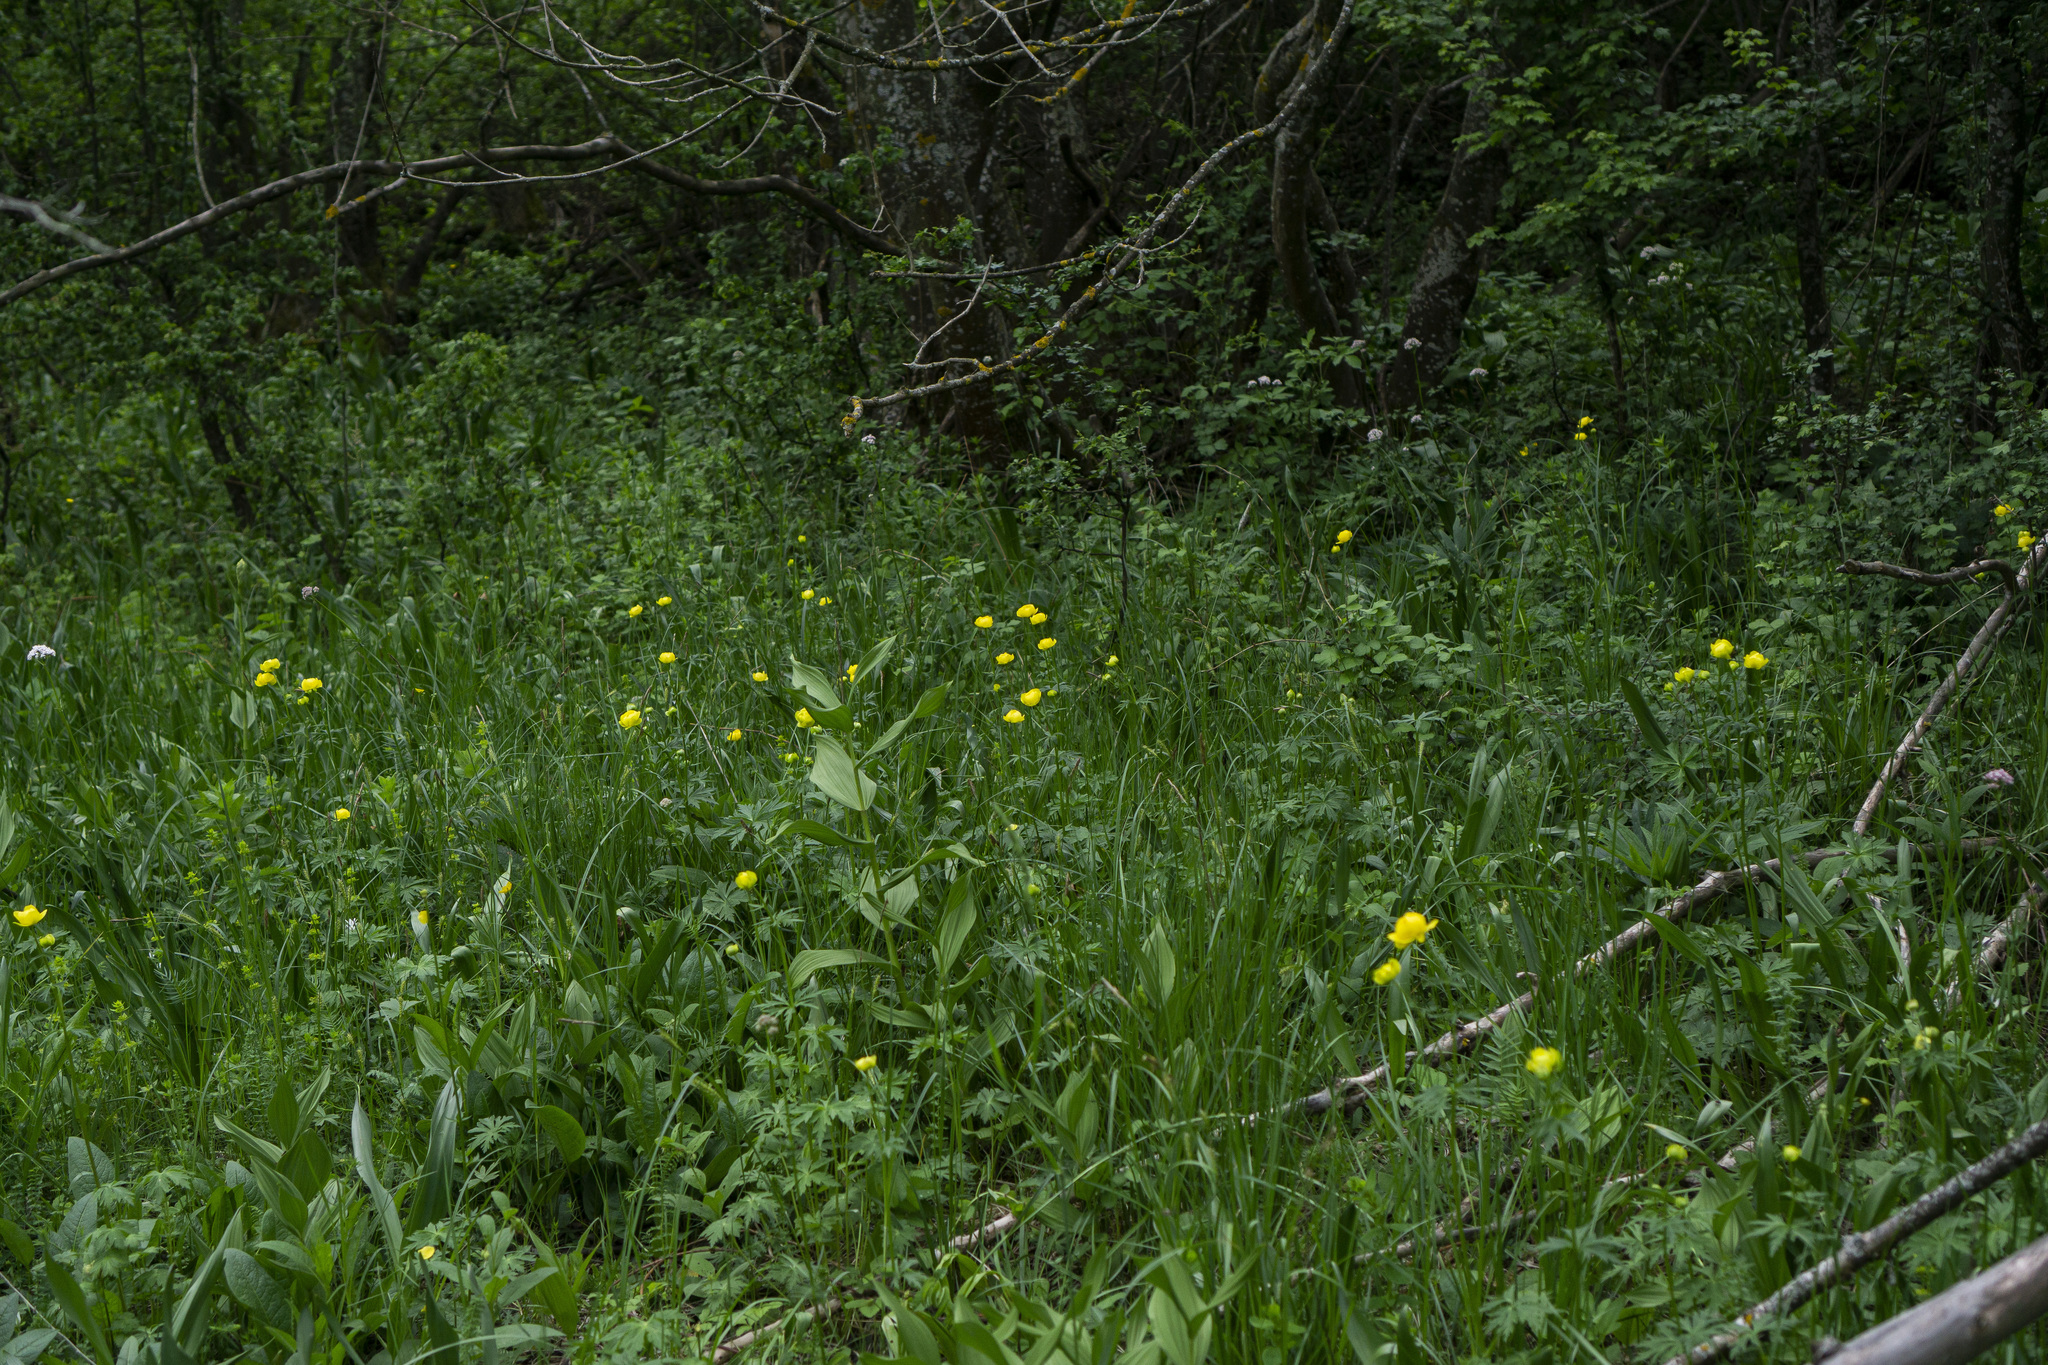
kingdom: Plantae
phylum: Tracheophyta
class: Magnoliopsida
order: Ranunculales
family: Ranunculaceae
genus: Trollius
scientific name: Trollius europaeus
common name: European globeflower
